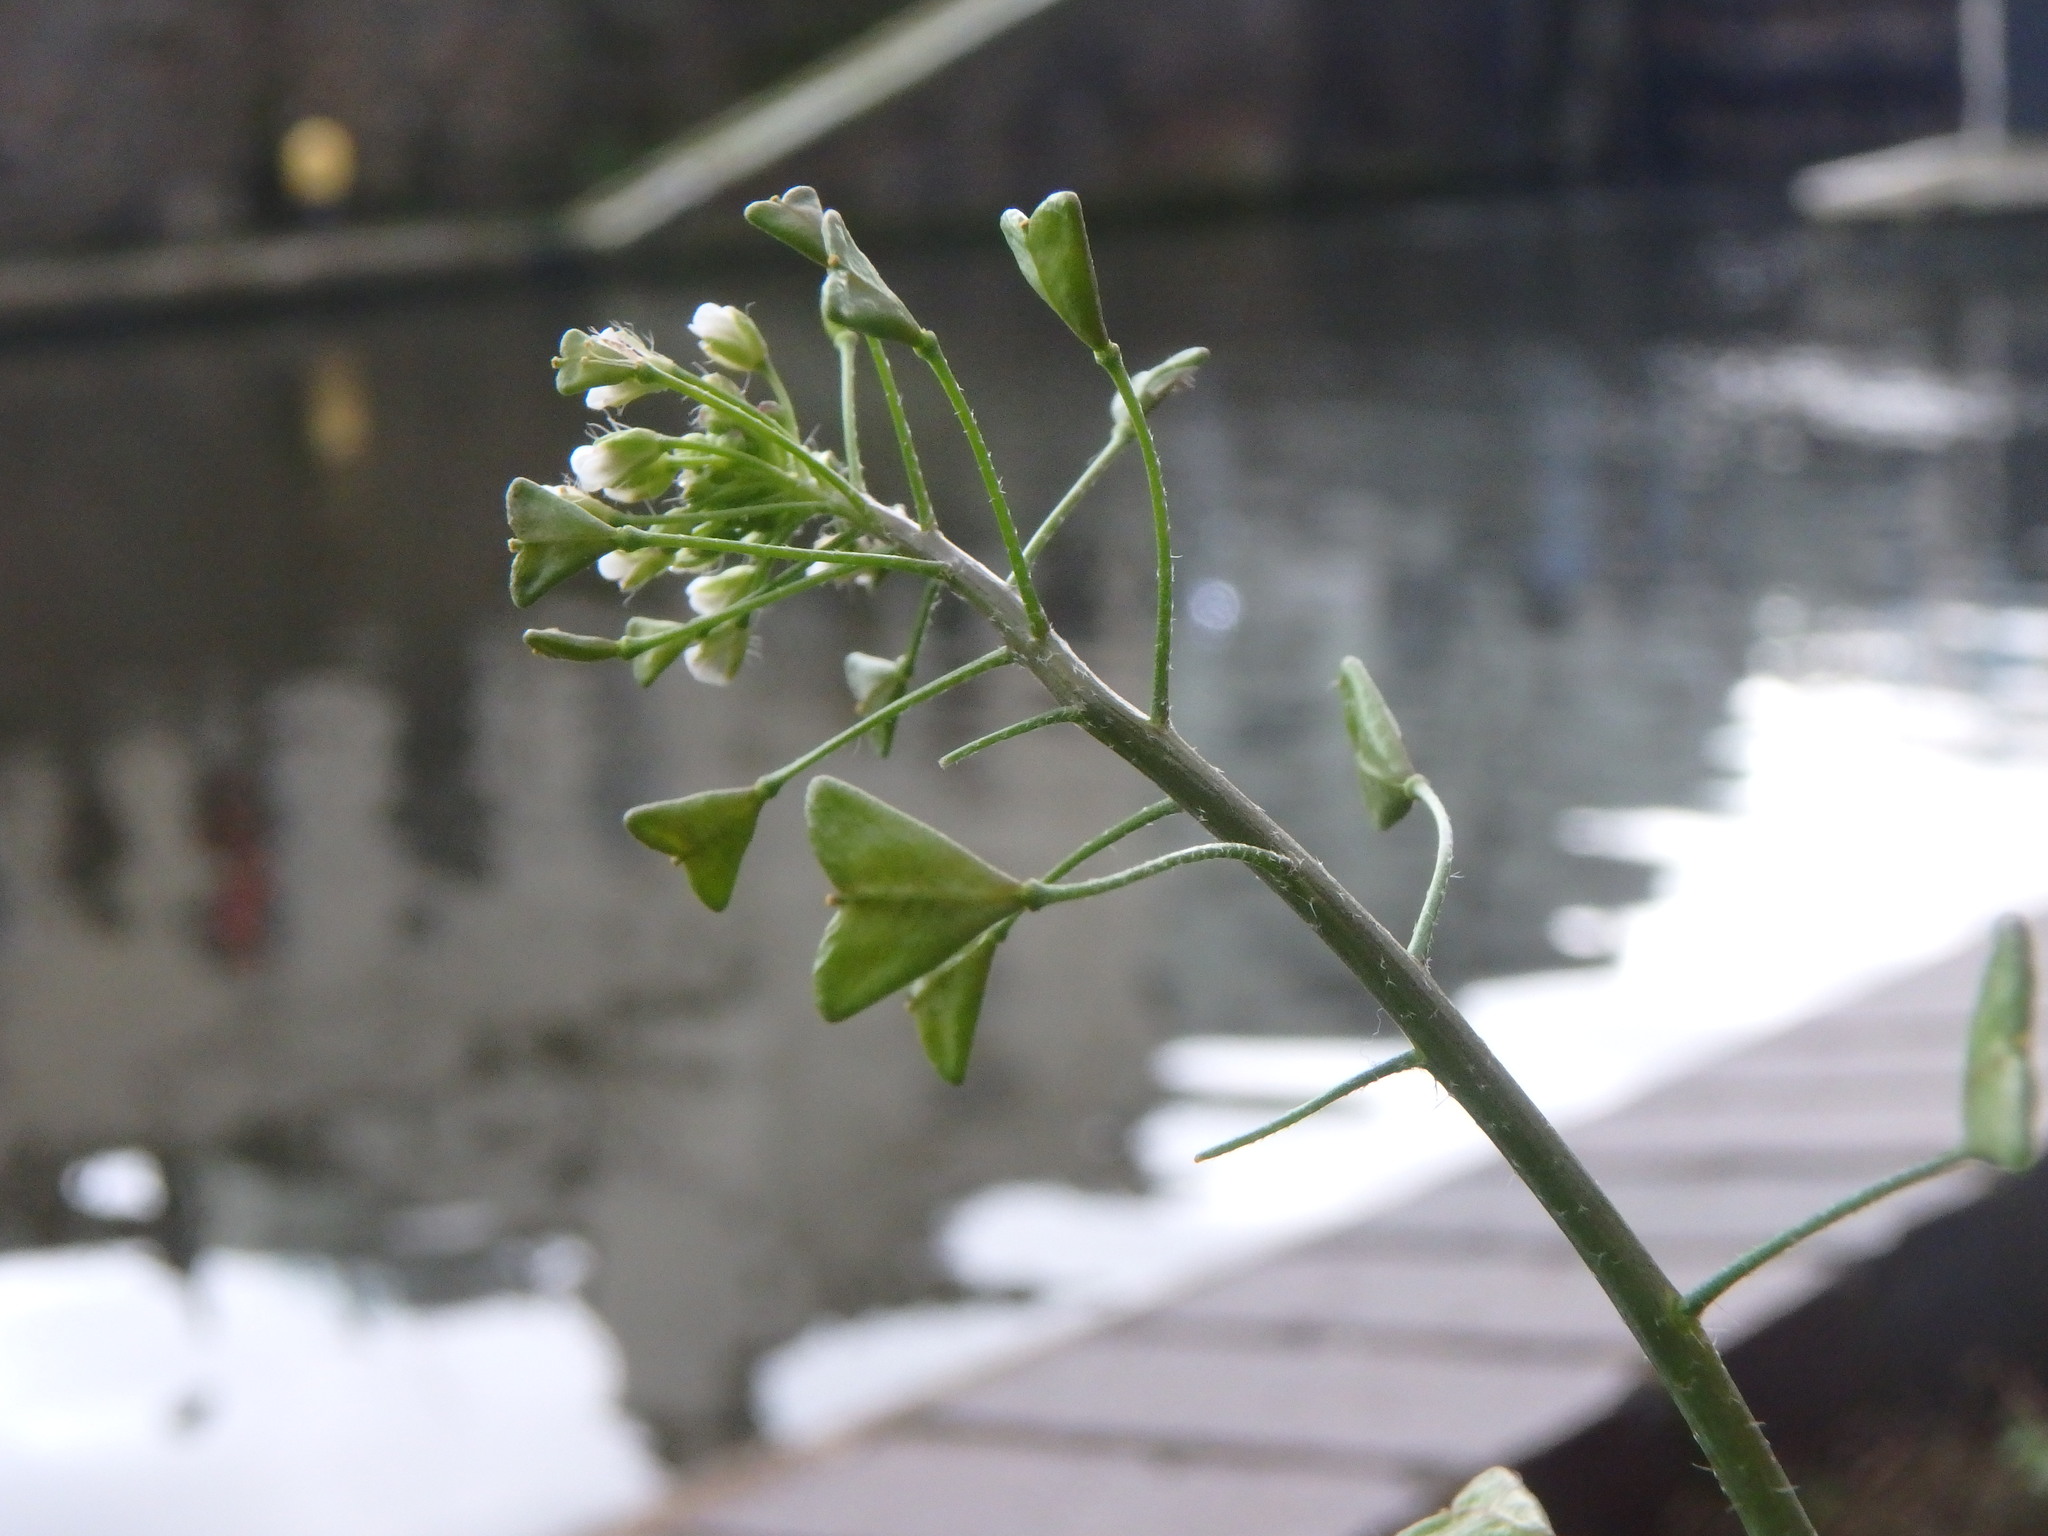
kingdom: Plantae
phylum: Tracheophyta
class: Magnoliopsida
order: Brassicales
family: Brassicaceae
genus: Capsella
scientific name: Capsella bursa-pastoris
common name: Shepherd's purse
